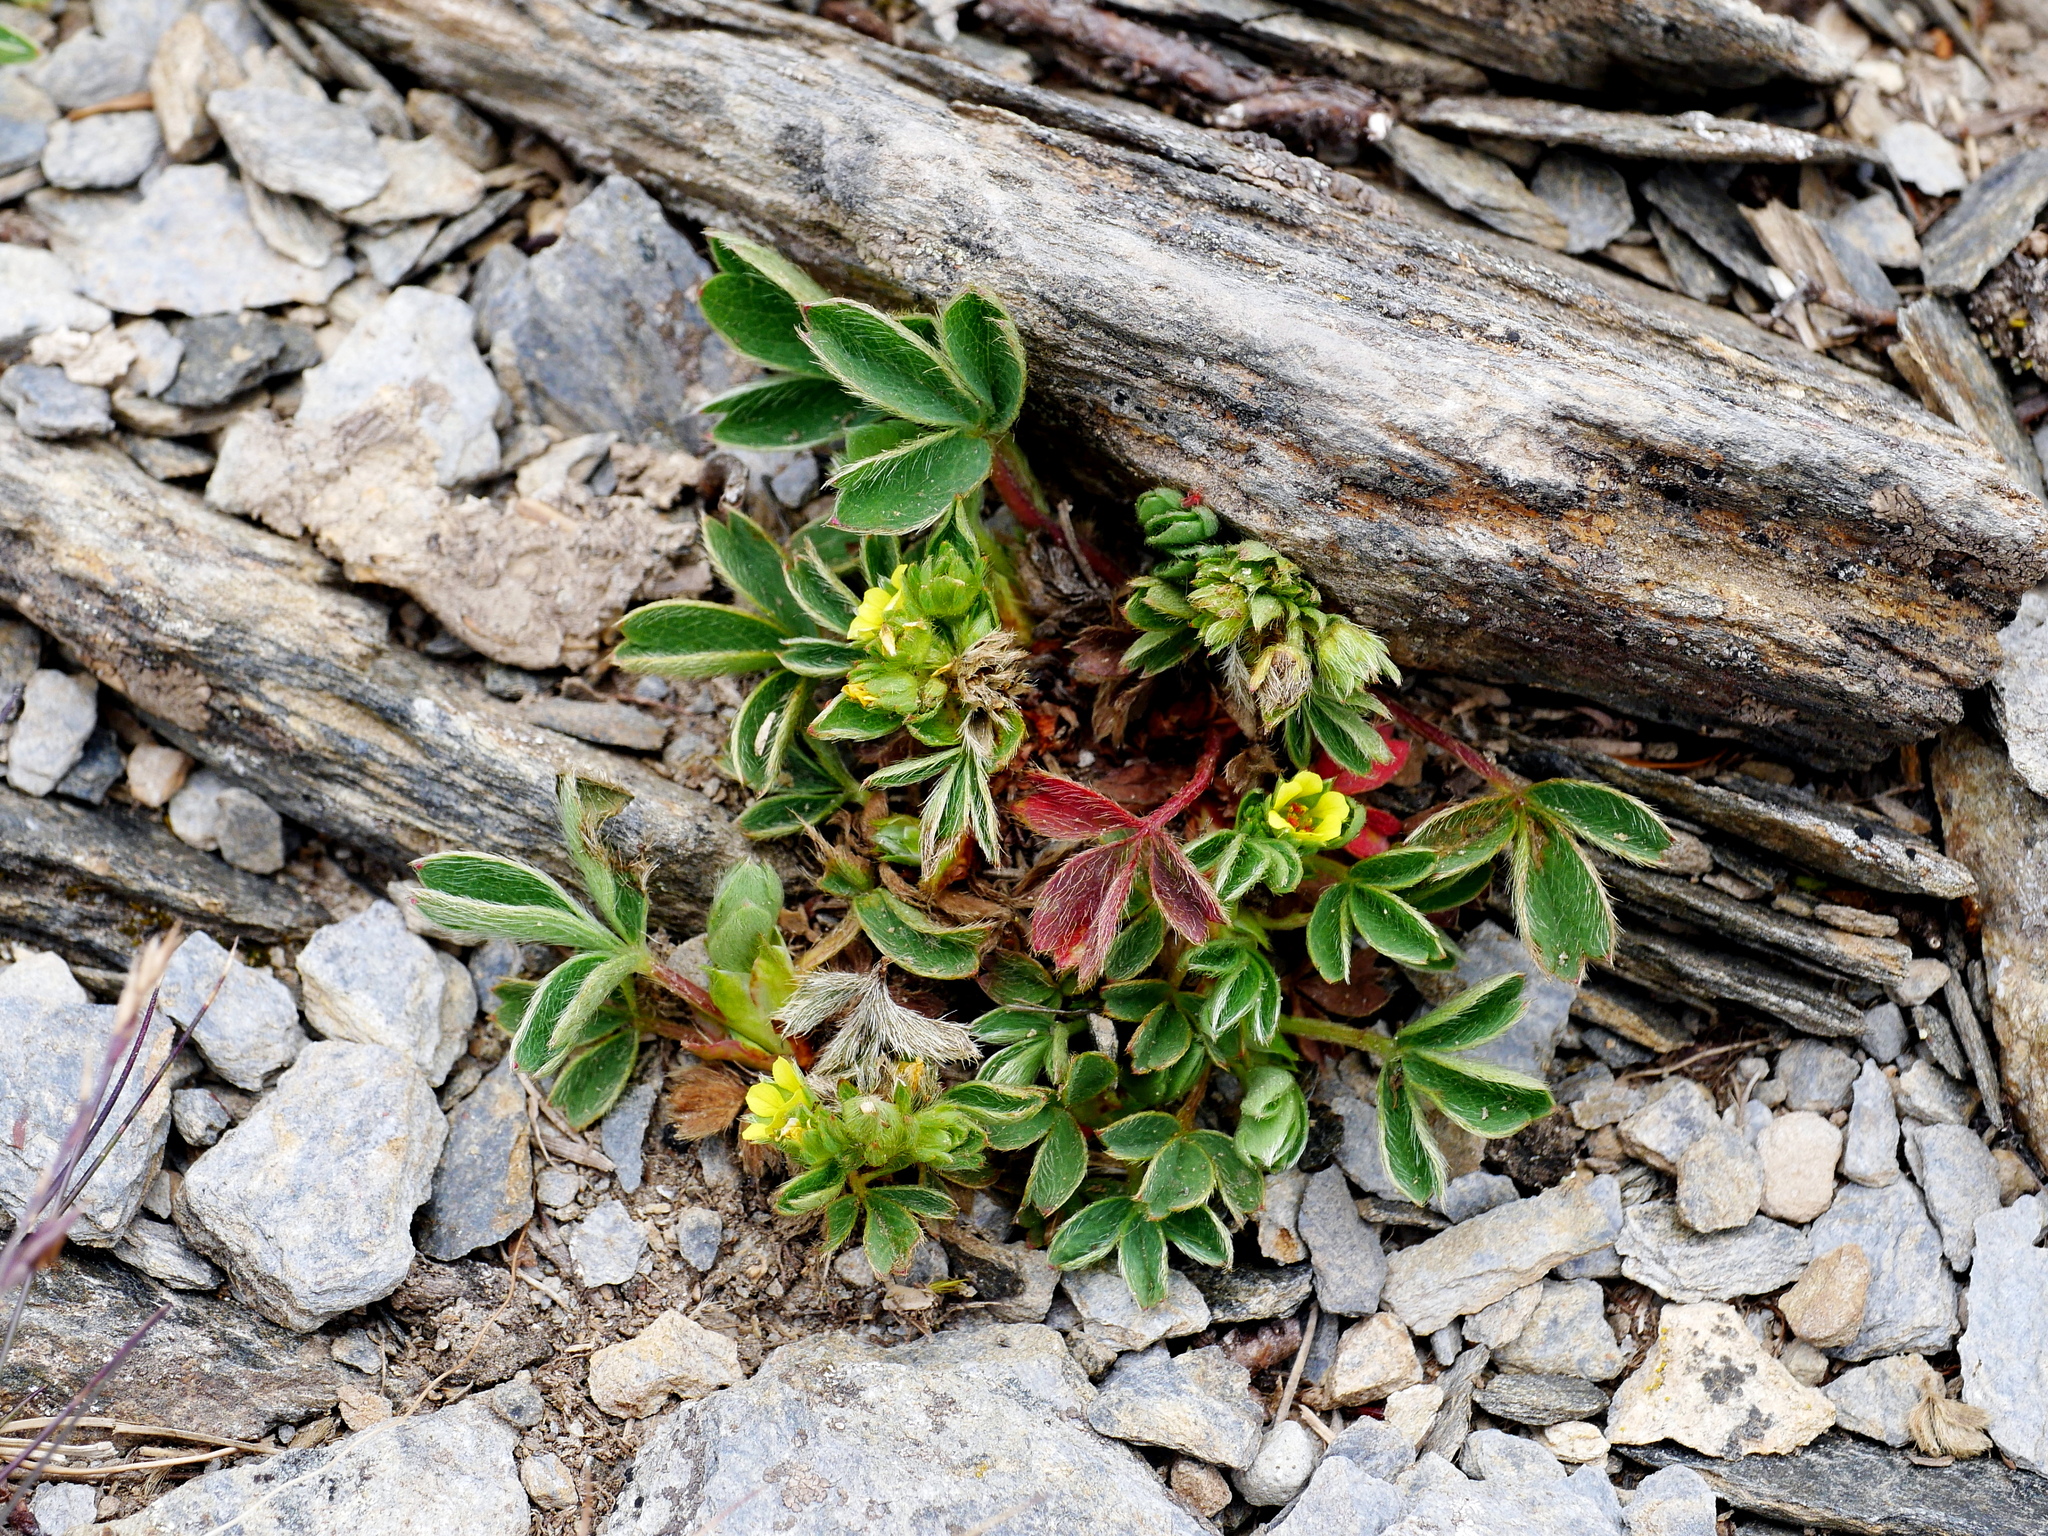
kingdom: Plantae
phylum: Tracheophyta
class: Magnoliopsida
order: Rosales
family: Rosaceae
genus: Sibbaldia
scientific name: Sibbaldia procumbens
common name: Creeping sibbaldia
